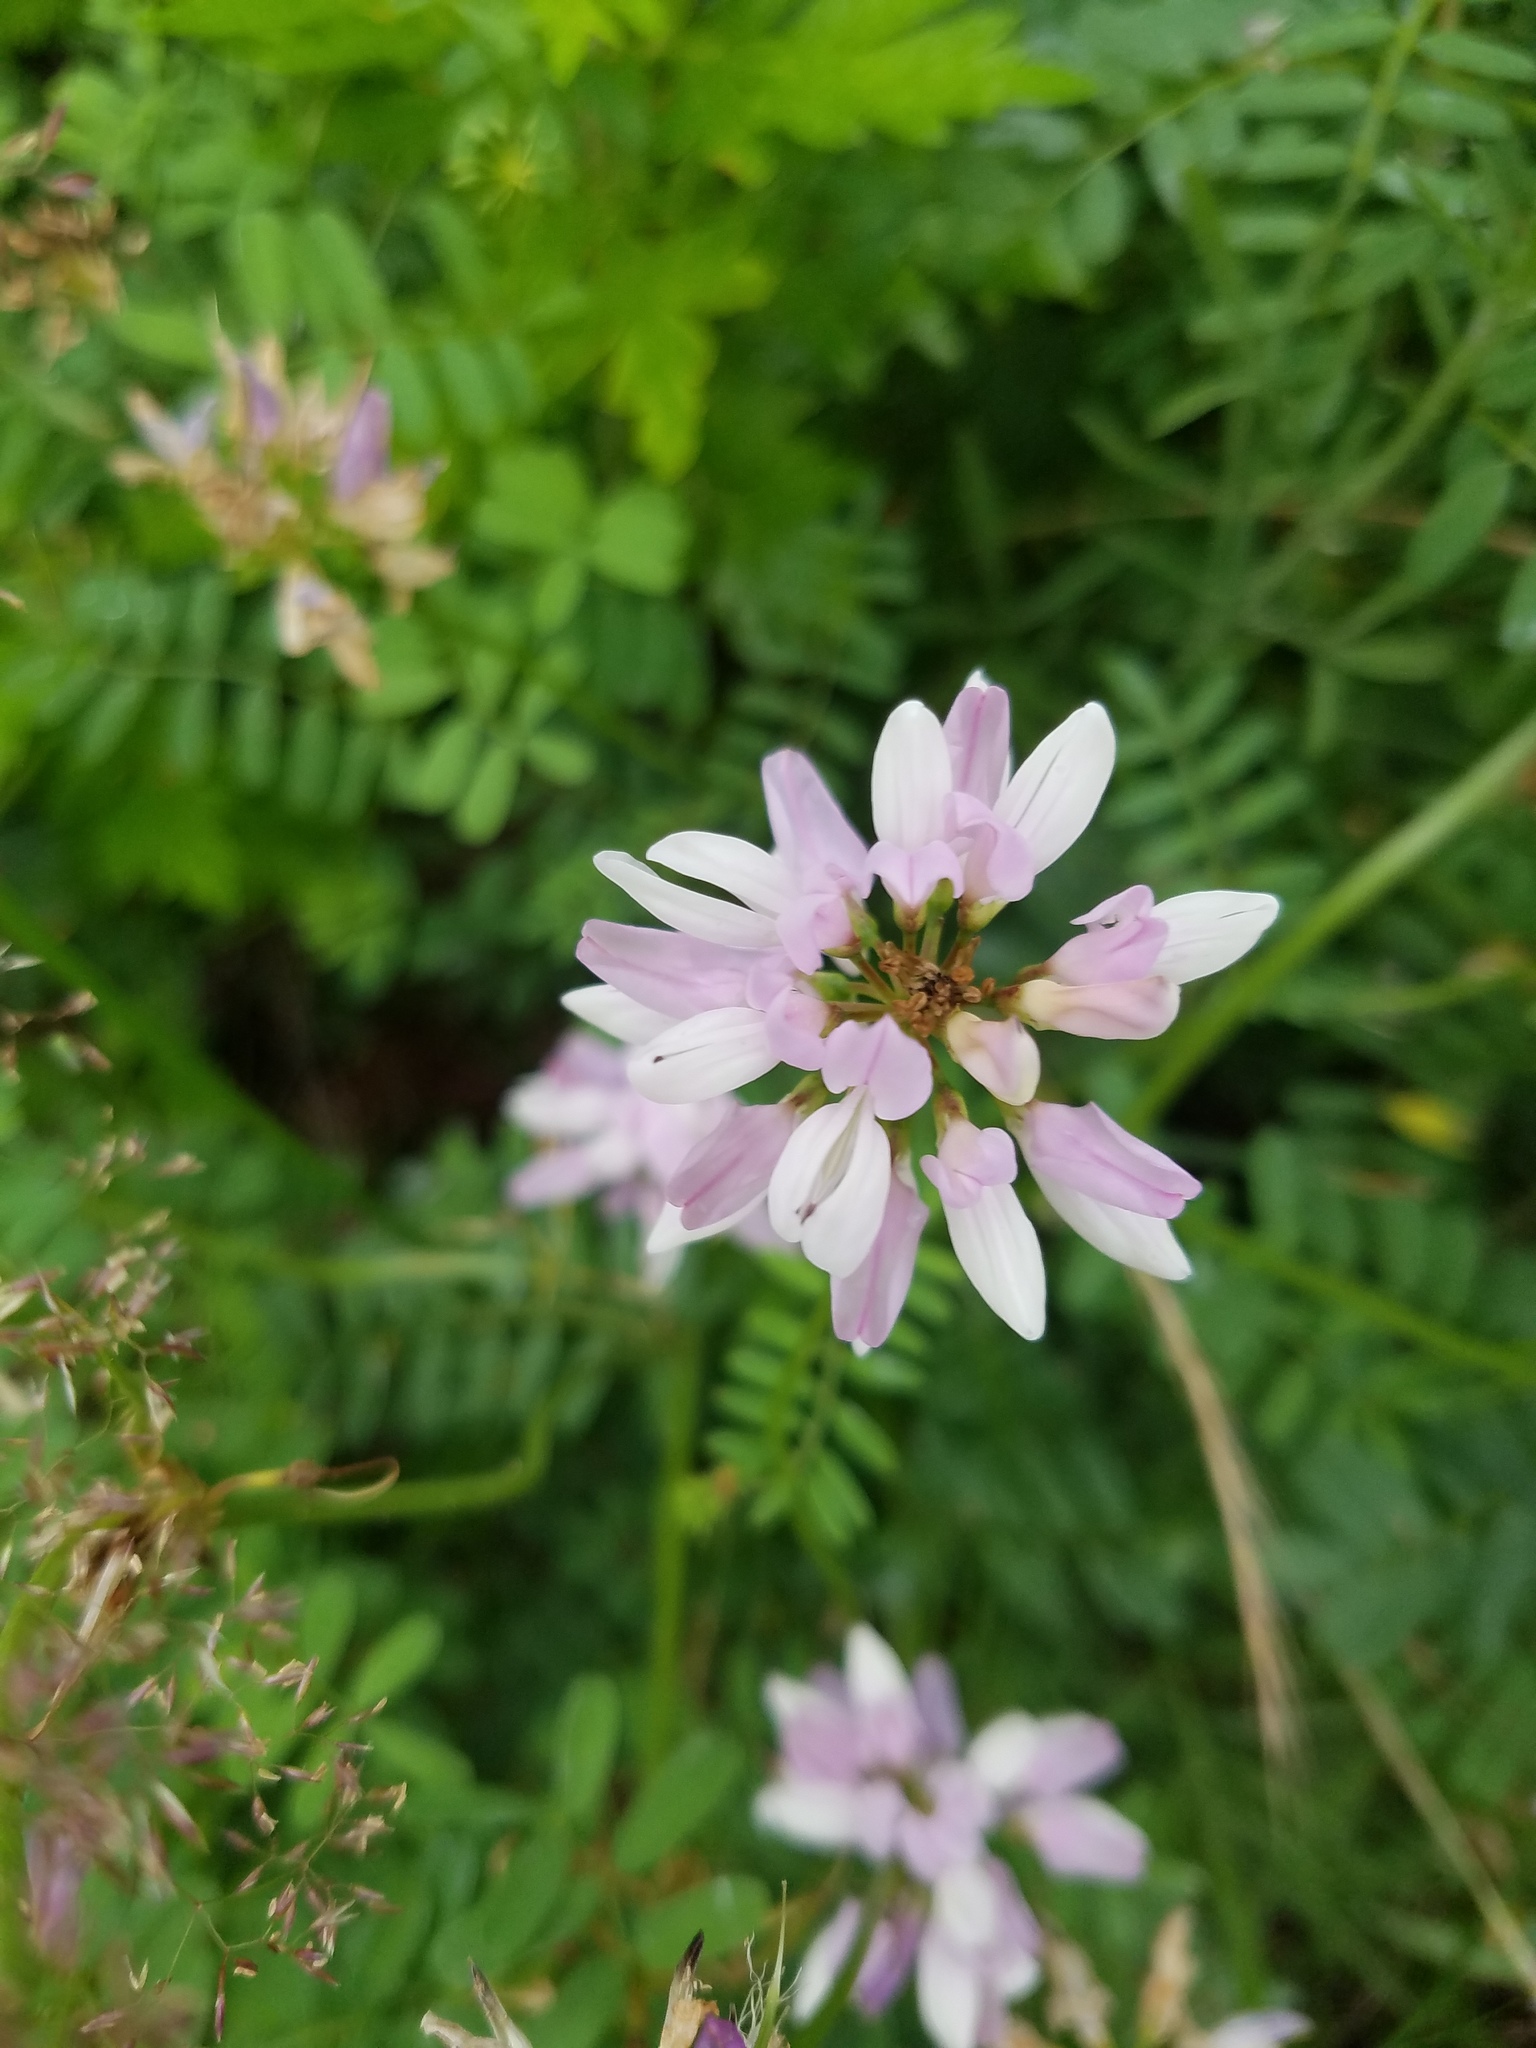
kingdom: Plantae
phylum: Tracheophyta
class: Magnoliopsida
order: Fabales
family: Fabaceae
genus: Coronilla
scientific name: Coronilla varia
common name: Crownvetch
